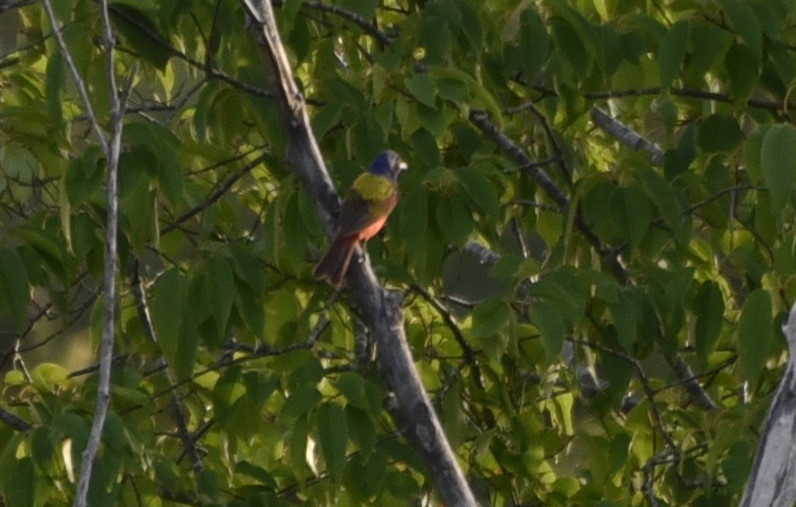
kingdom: Animalia
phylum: Chordata
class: Aves
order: Passeriformes
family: Cardinalidae
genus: Passerina
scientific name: Passerina ciris
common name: Painted bunting
